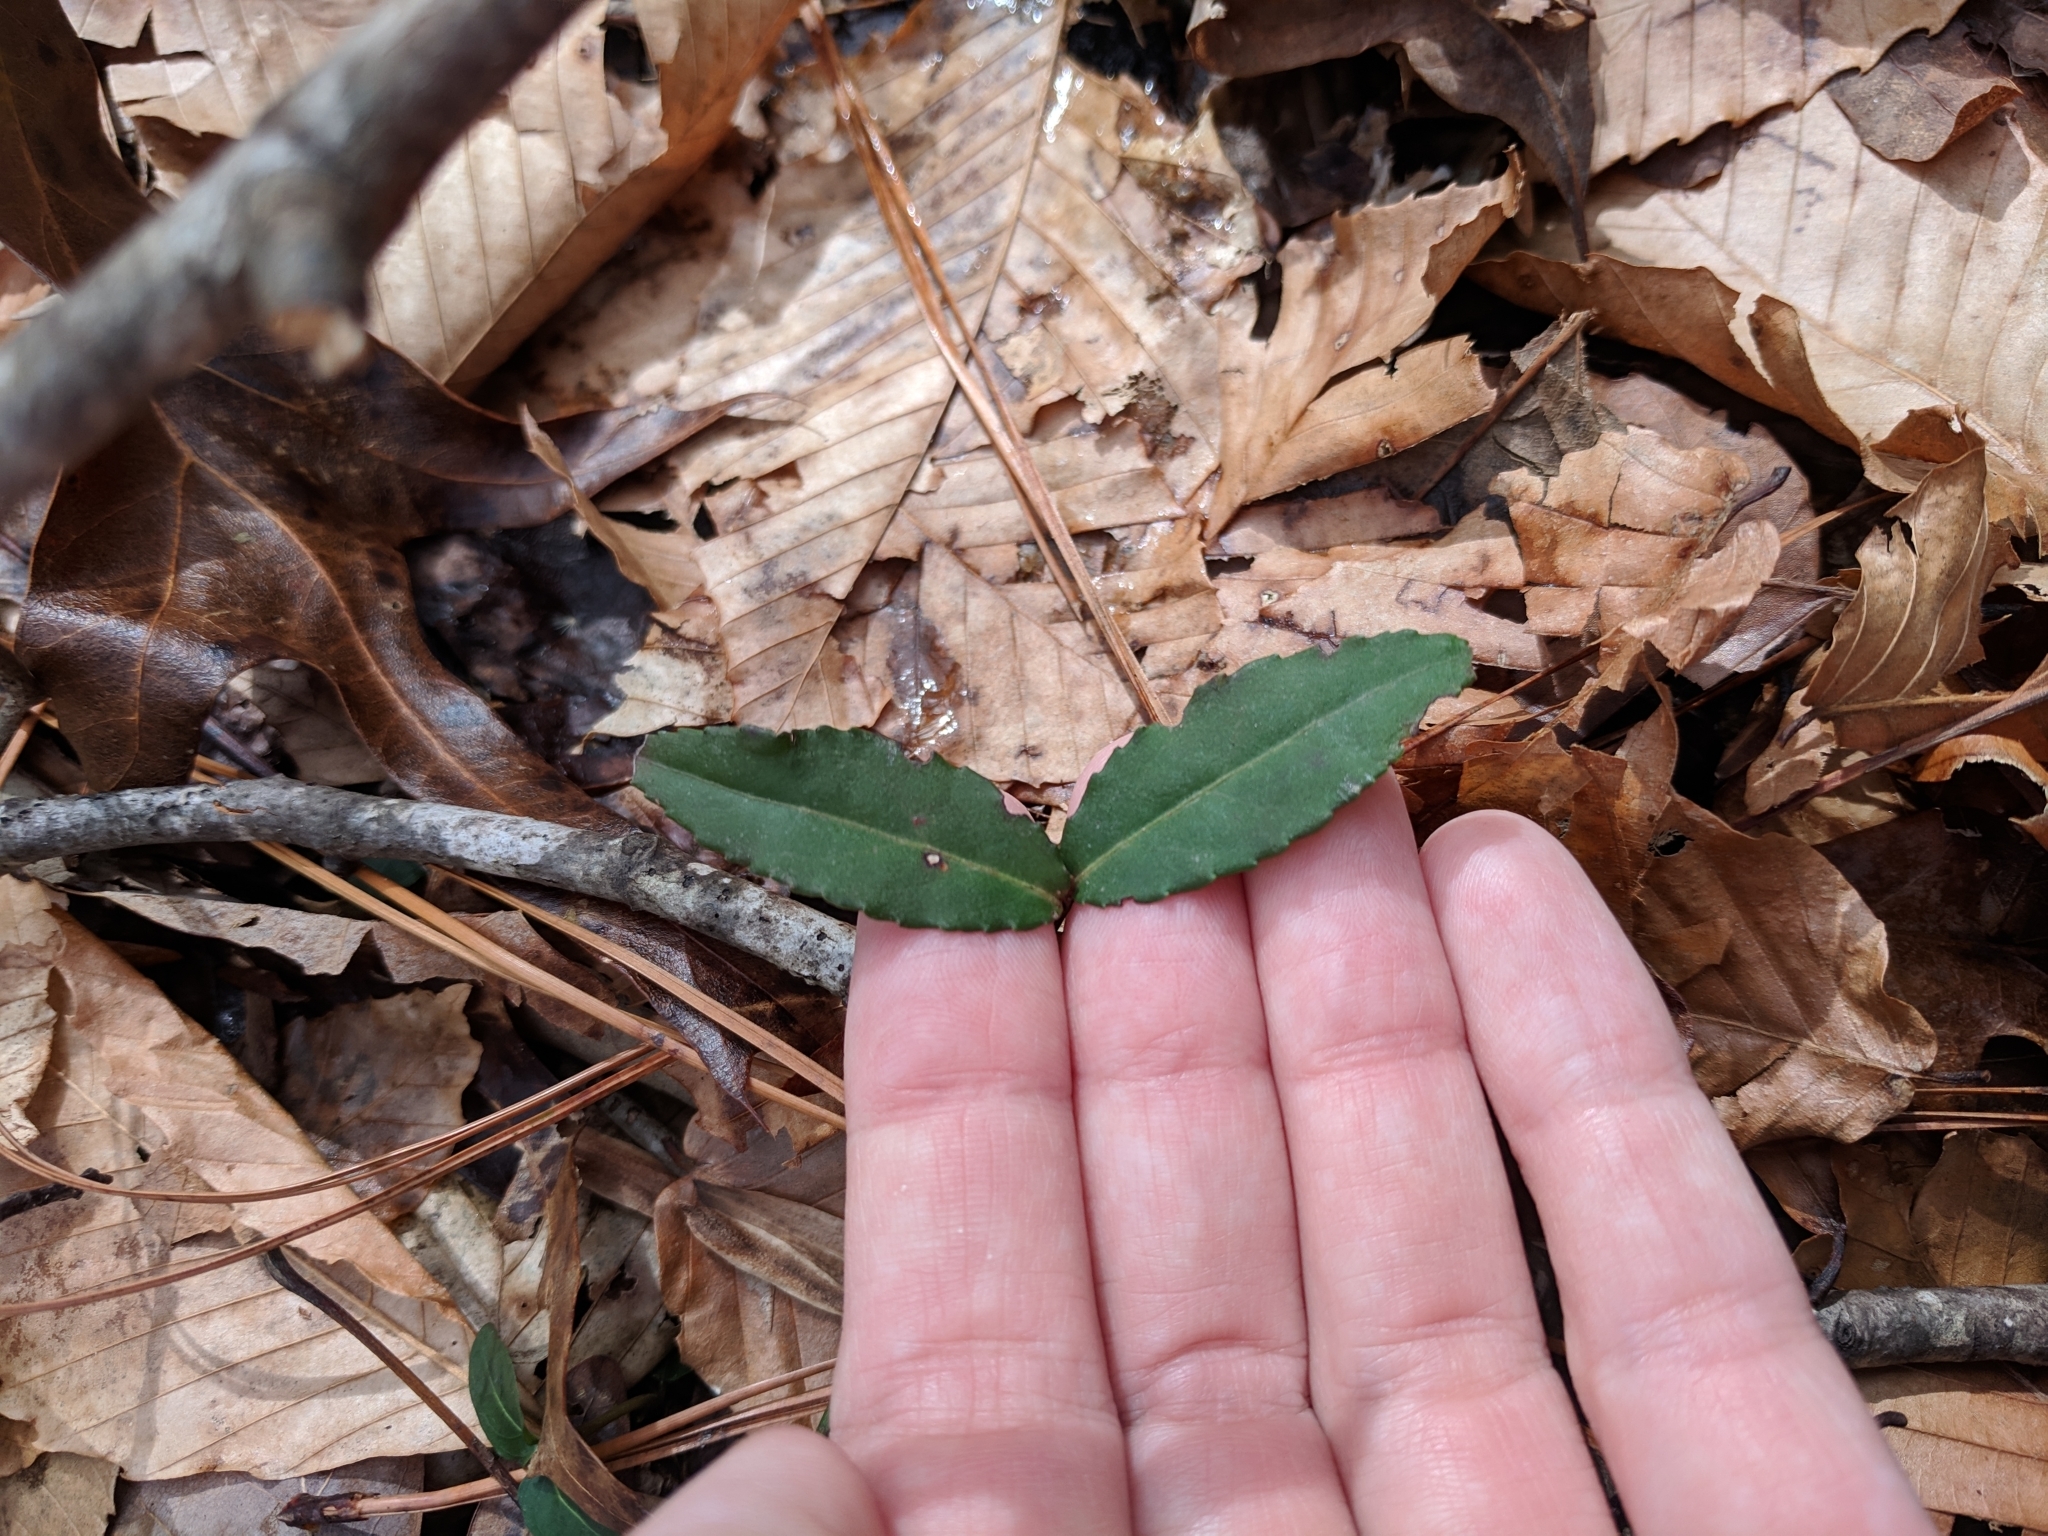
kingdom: Plantae
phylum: Tracheophyta
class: Magnoliopsida
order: Celastrales
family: Celastraceae
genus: Euonymus
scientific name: Euonymus americanus
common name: Bursting-heart
